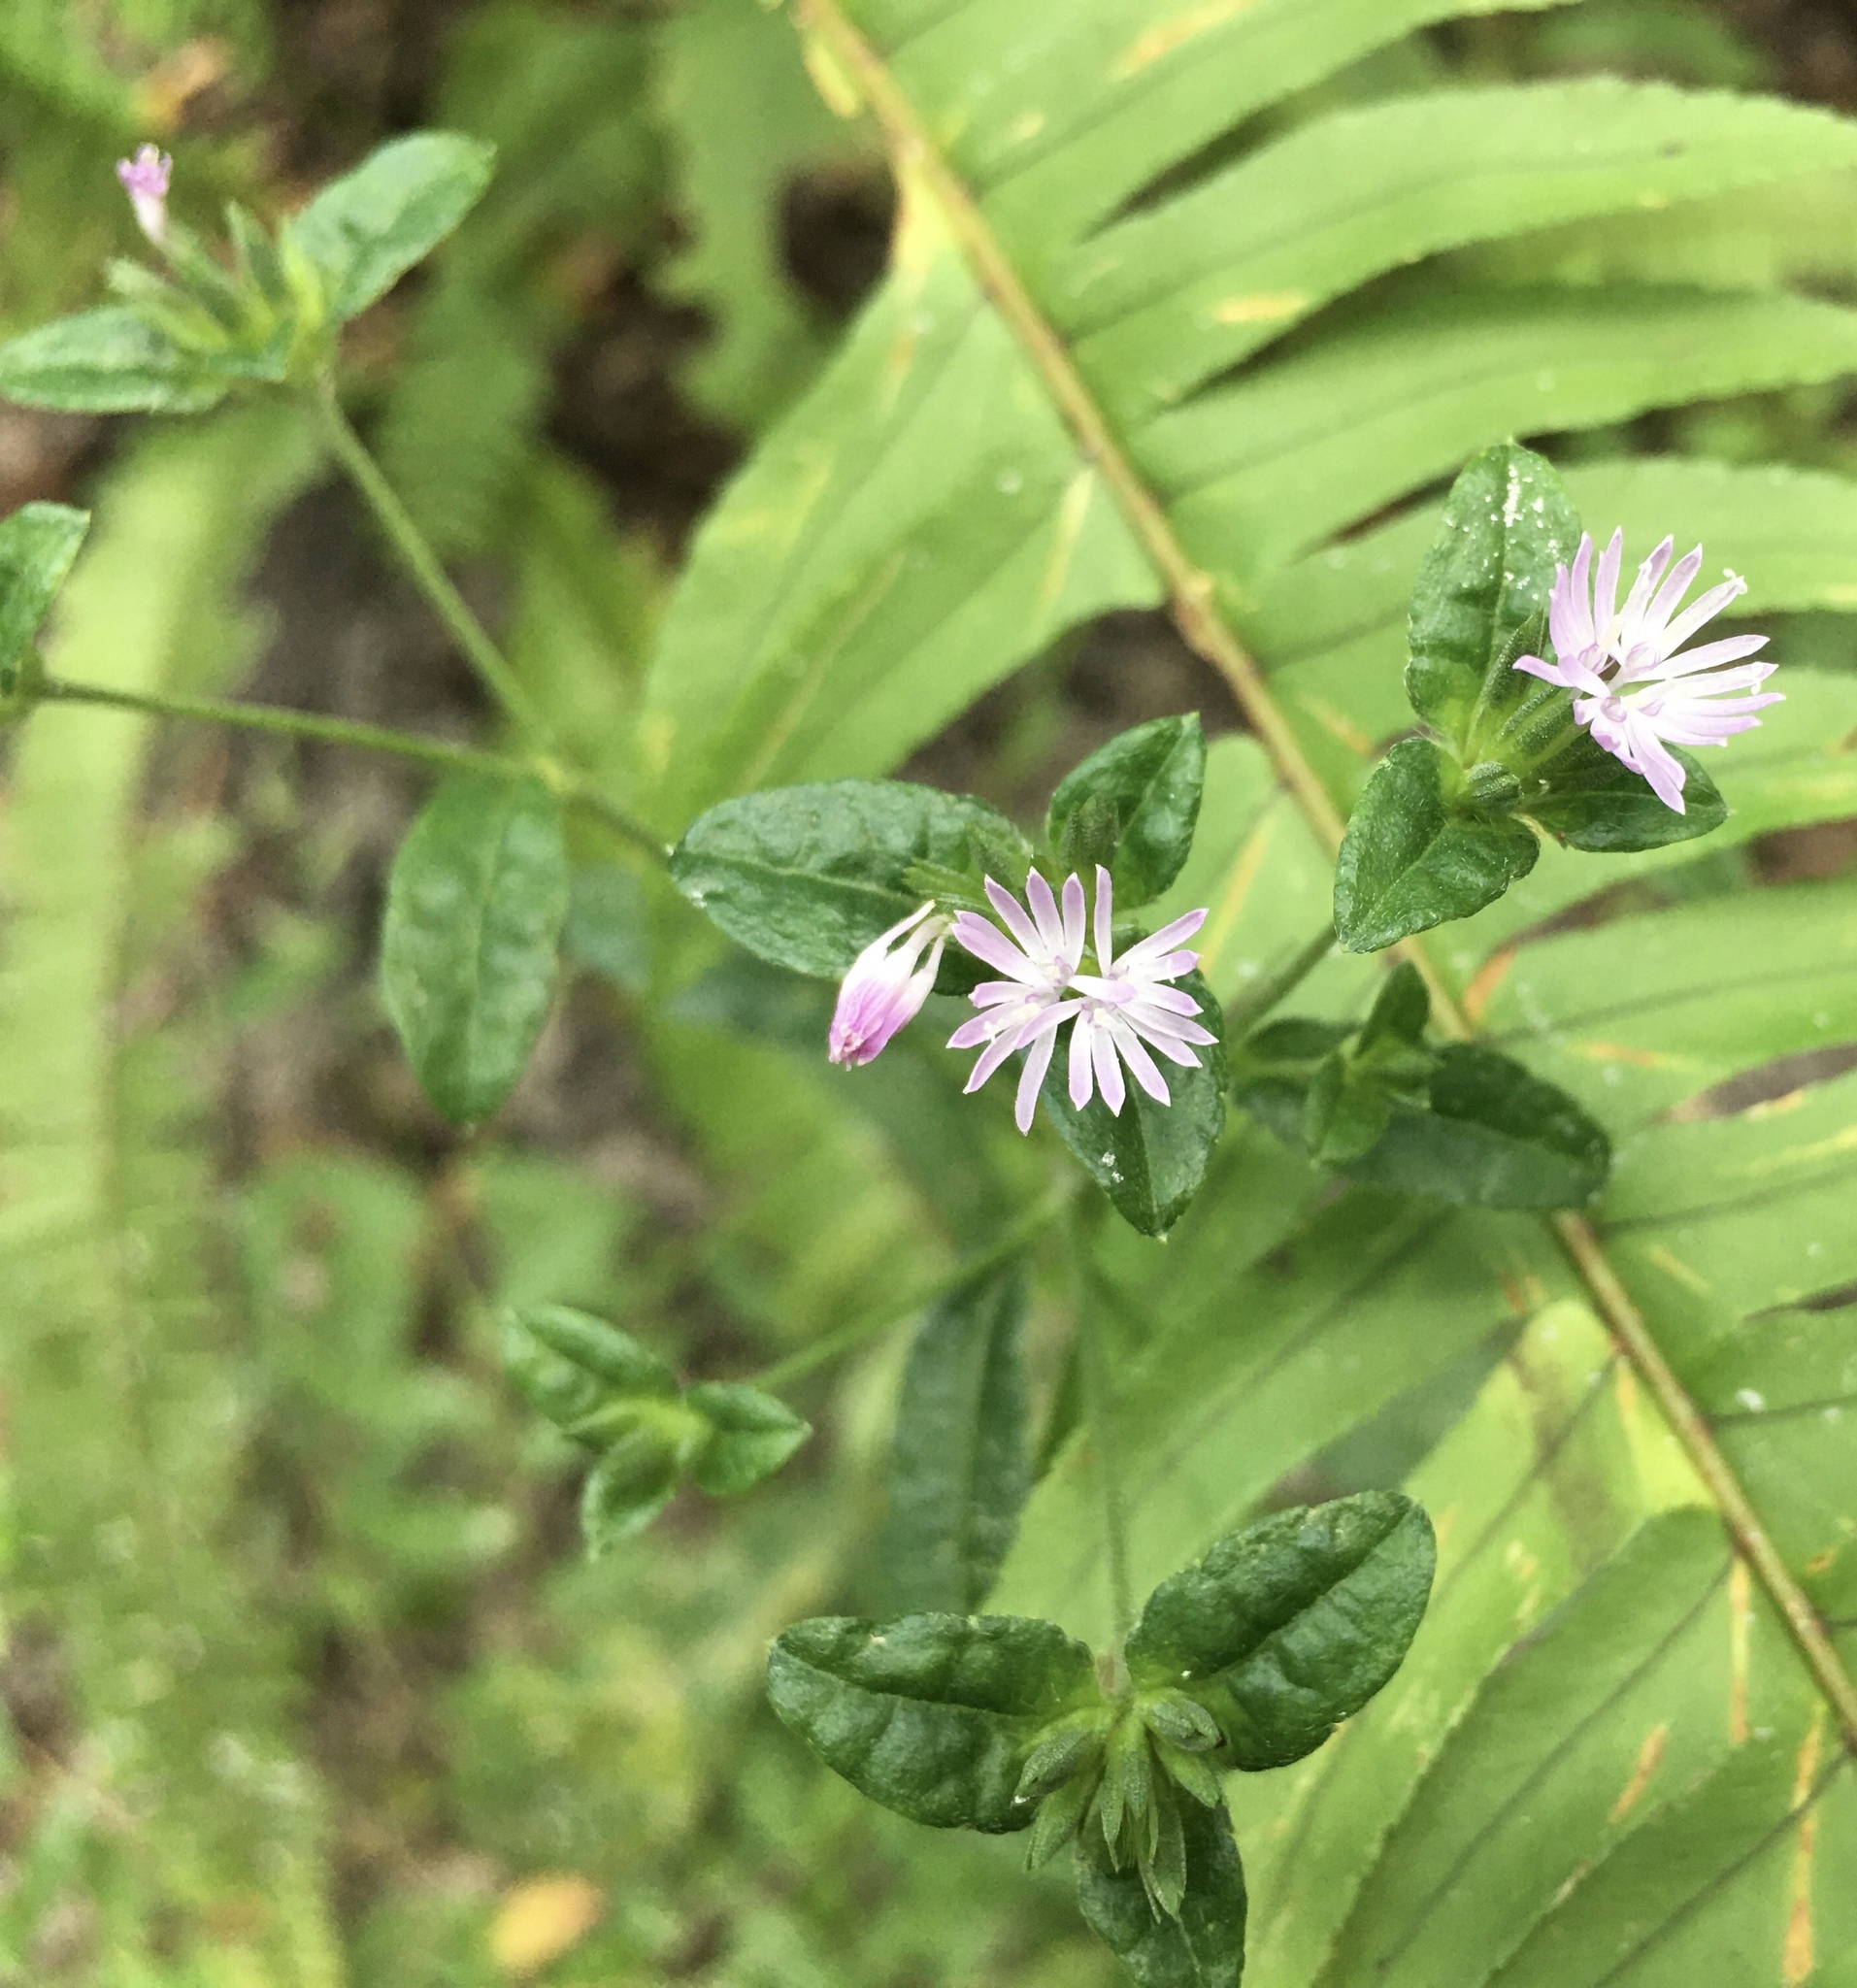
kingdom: Plantae
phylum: Tracheophyta
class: Magnoliopsida
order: Asterales
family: Asteraceae
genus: Elephantopus
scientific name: Elephantopus carolinianus
